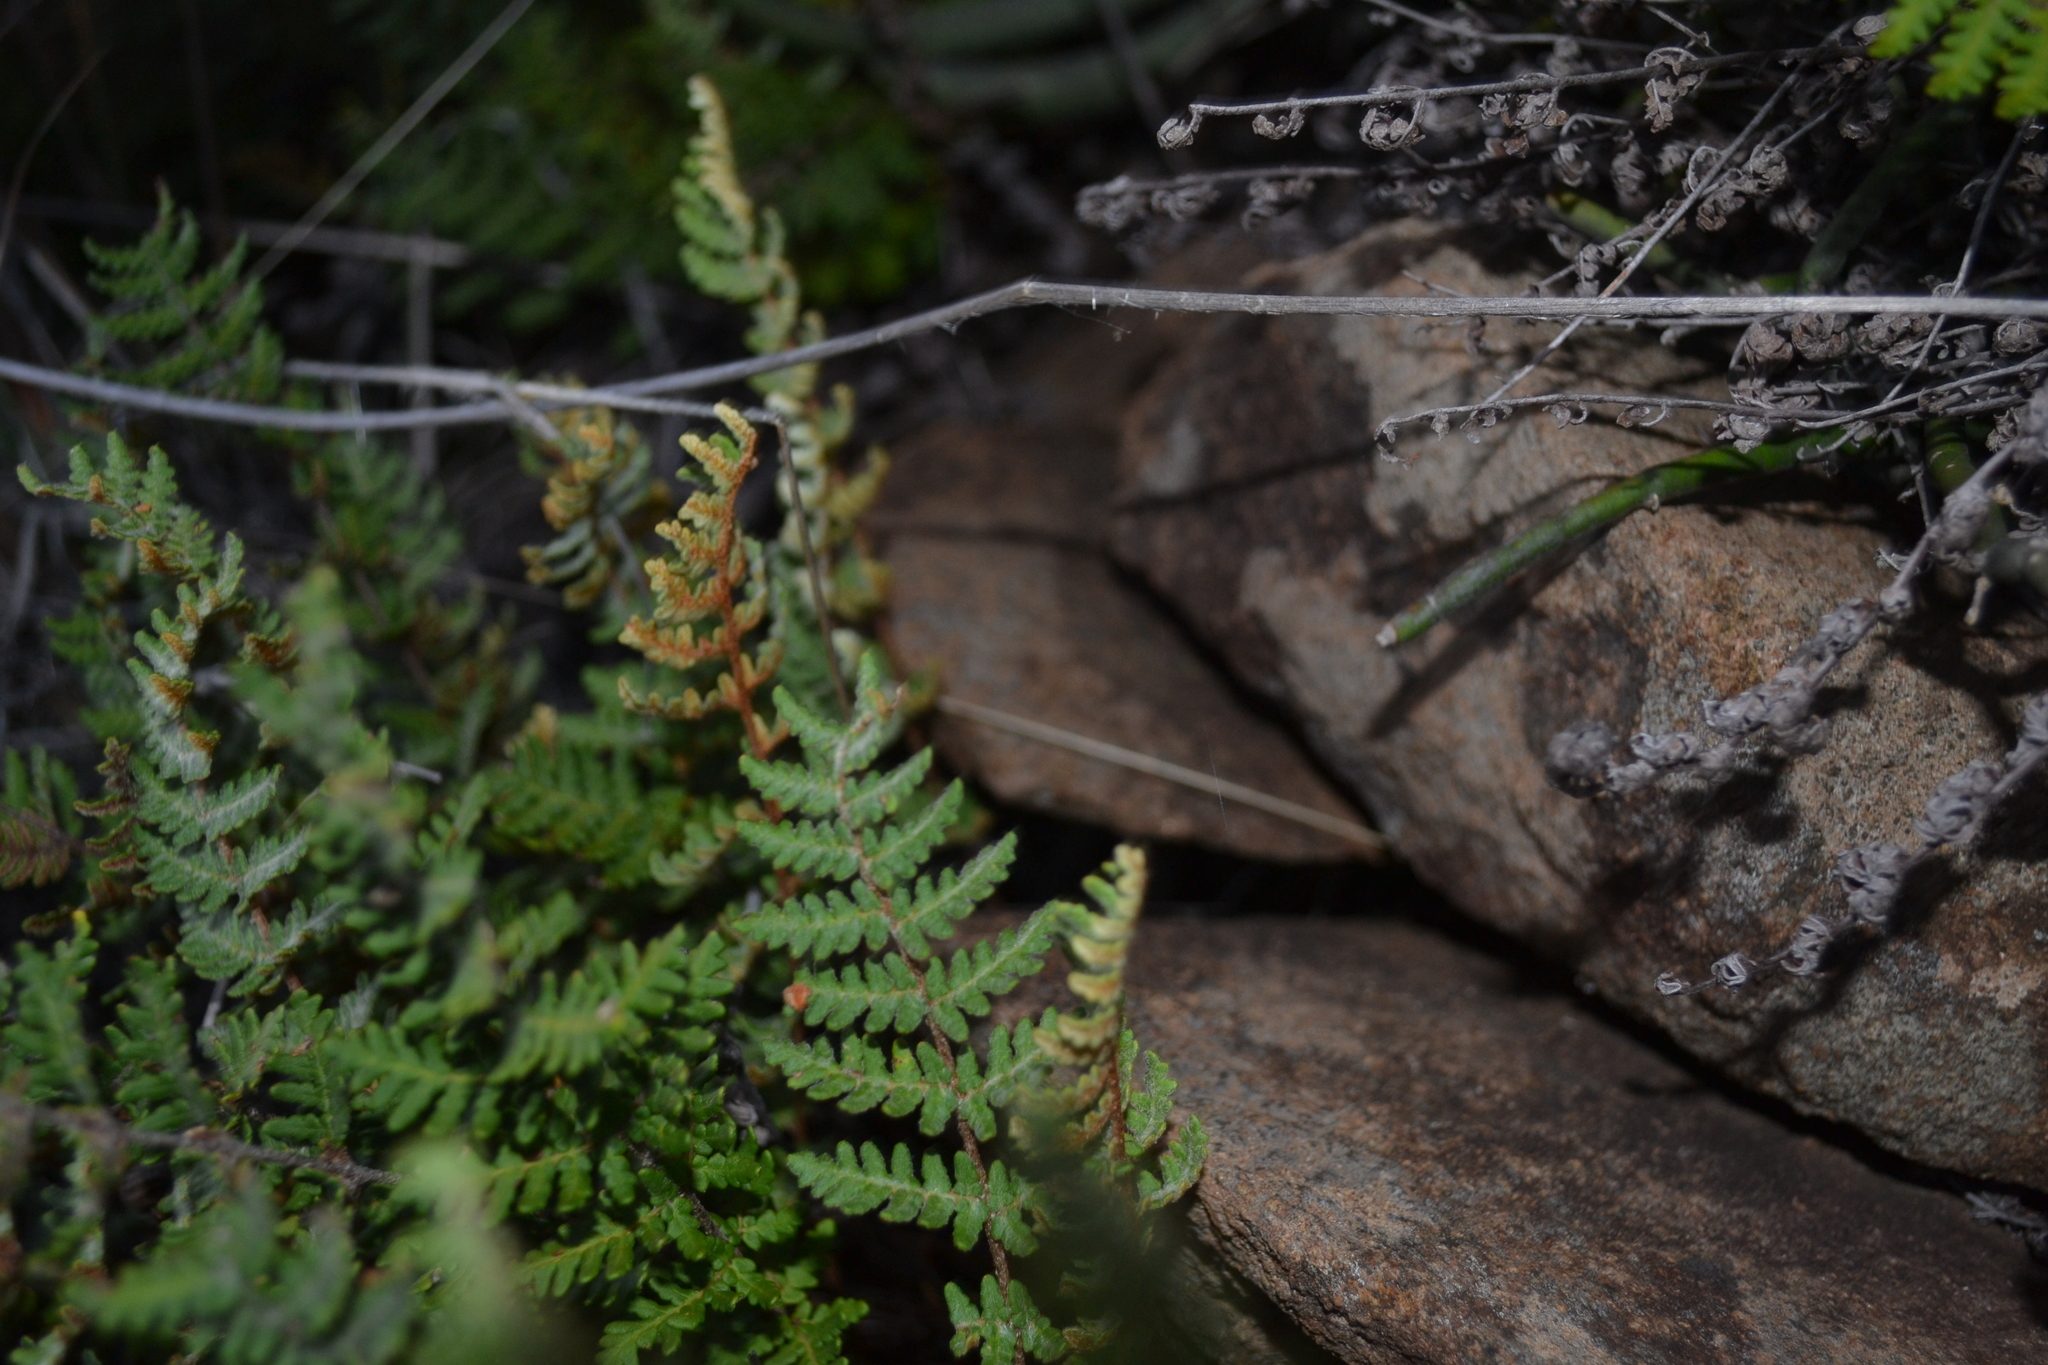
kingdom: Plantae
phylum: Tracheophyta
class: Polypodiopsida
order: Polypodiales
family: Pteridaceae
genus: Cheilanthes
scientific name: Cheilanthes eckloniana
